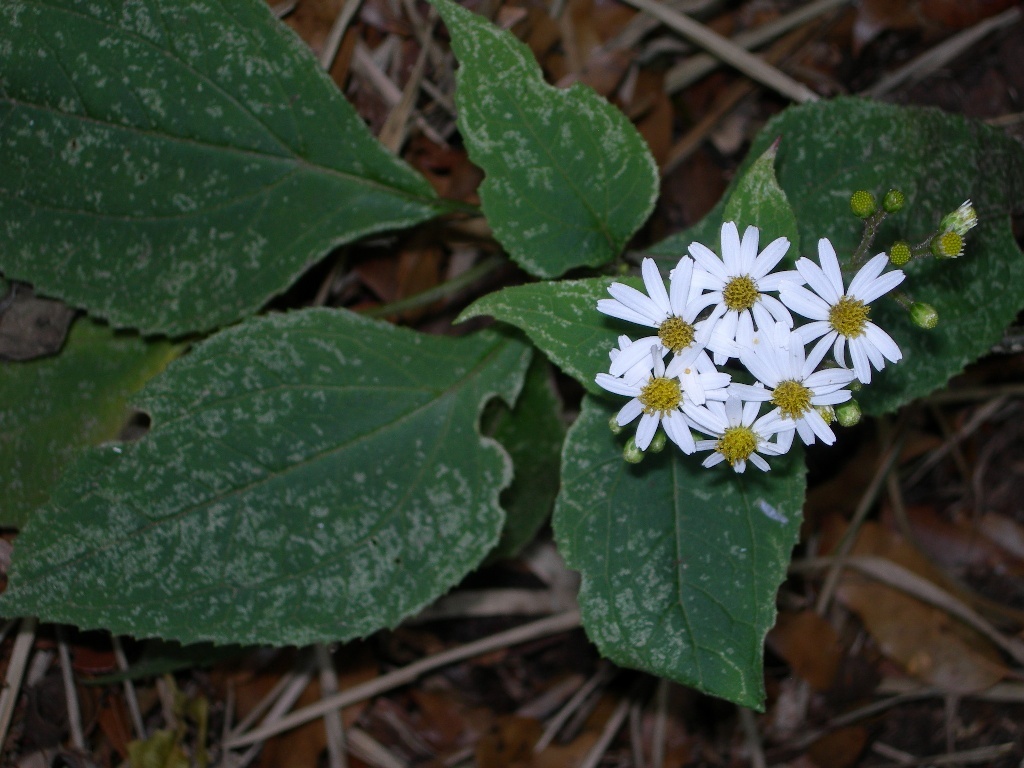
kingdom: Plantae
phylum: Tracheophyta
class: Magnoliopsida
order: Asterales
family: Asteraceae
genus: Schistocarpha
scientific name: Schistocarpha longiligula
